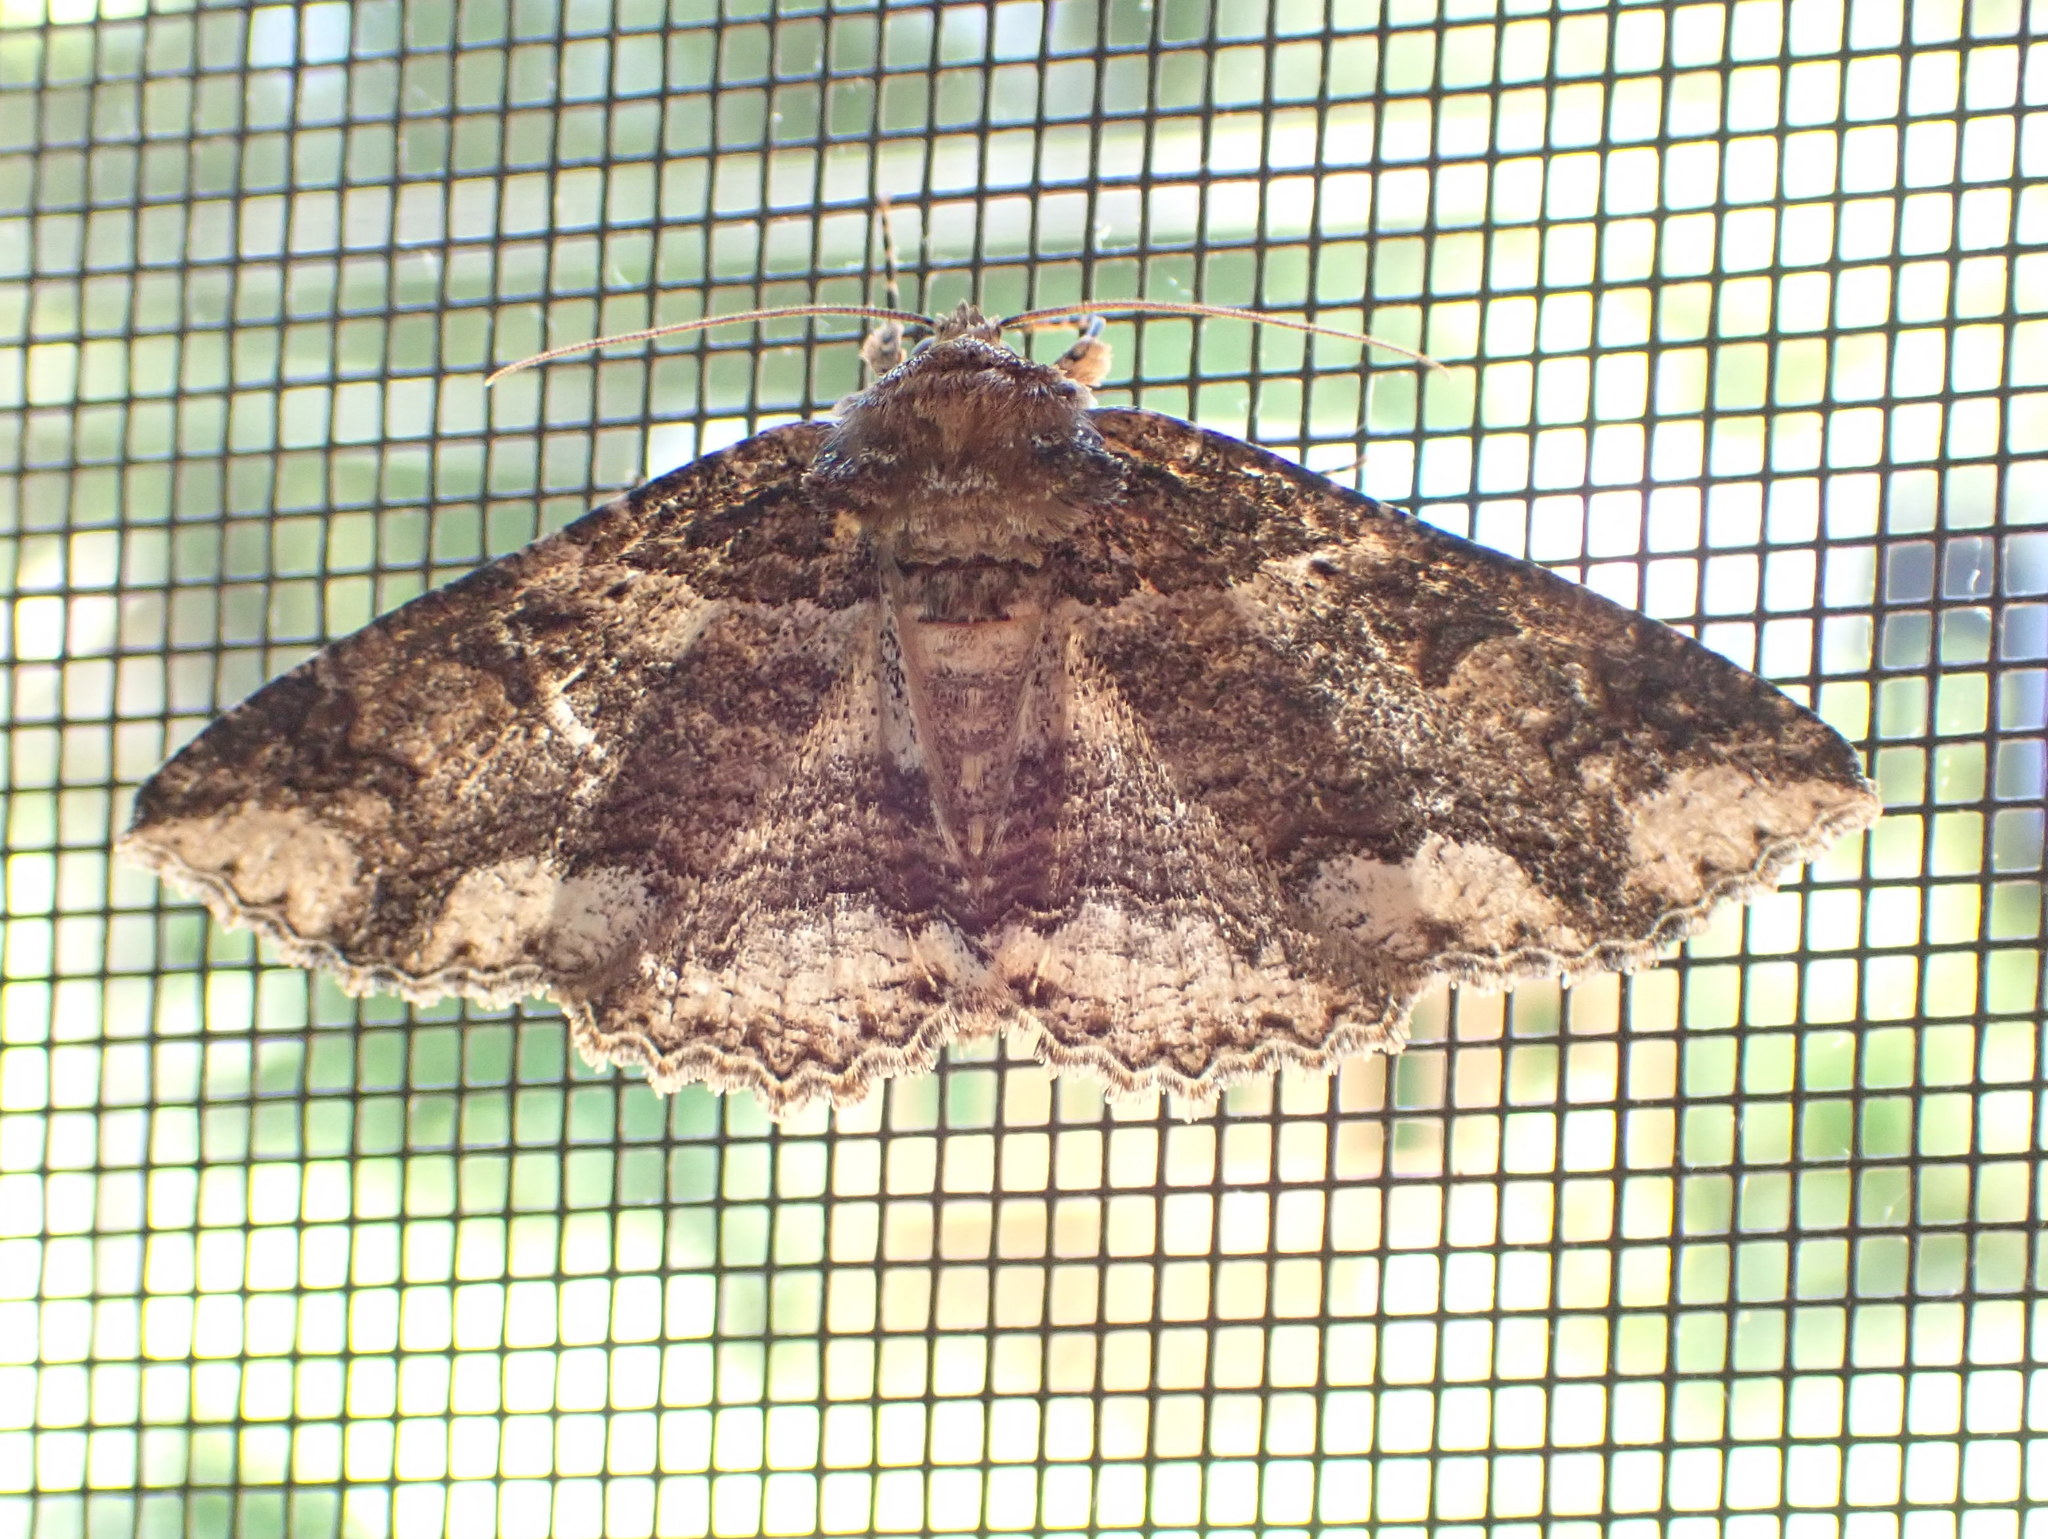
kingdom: Animalia
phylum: Arthropoda
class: Insecta
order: Lepidoptera
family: Erebidae
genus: Zale
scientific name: Zale minerea
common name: Colorful zale moth
